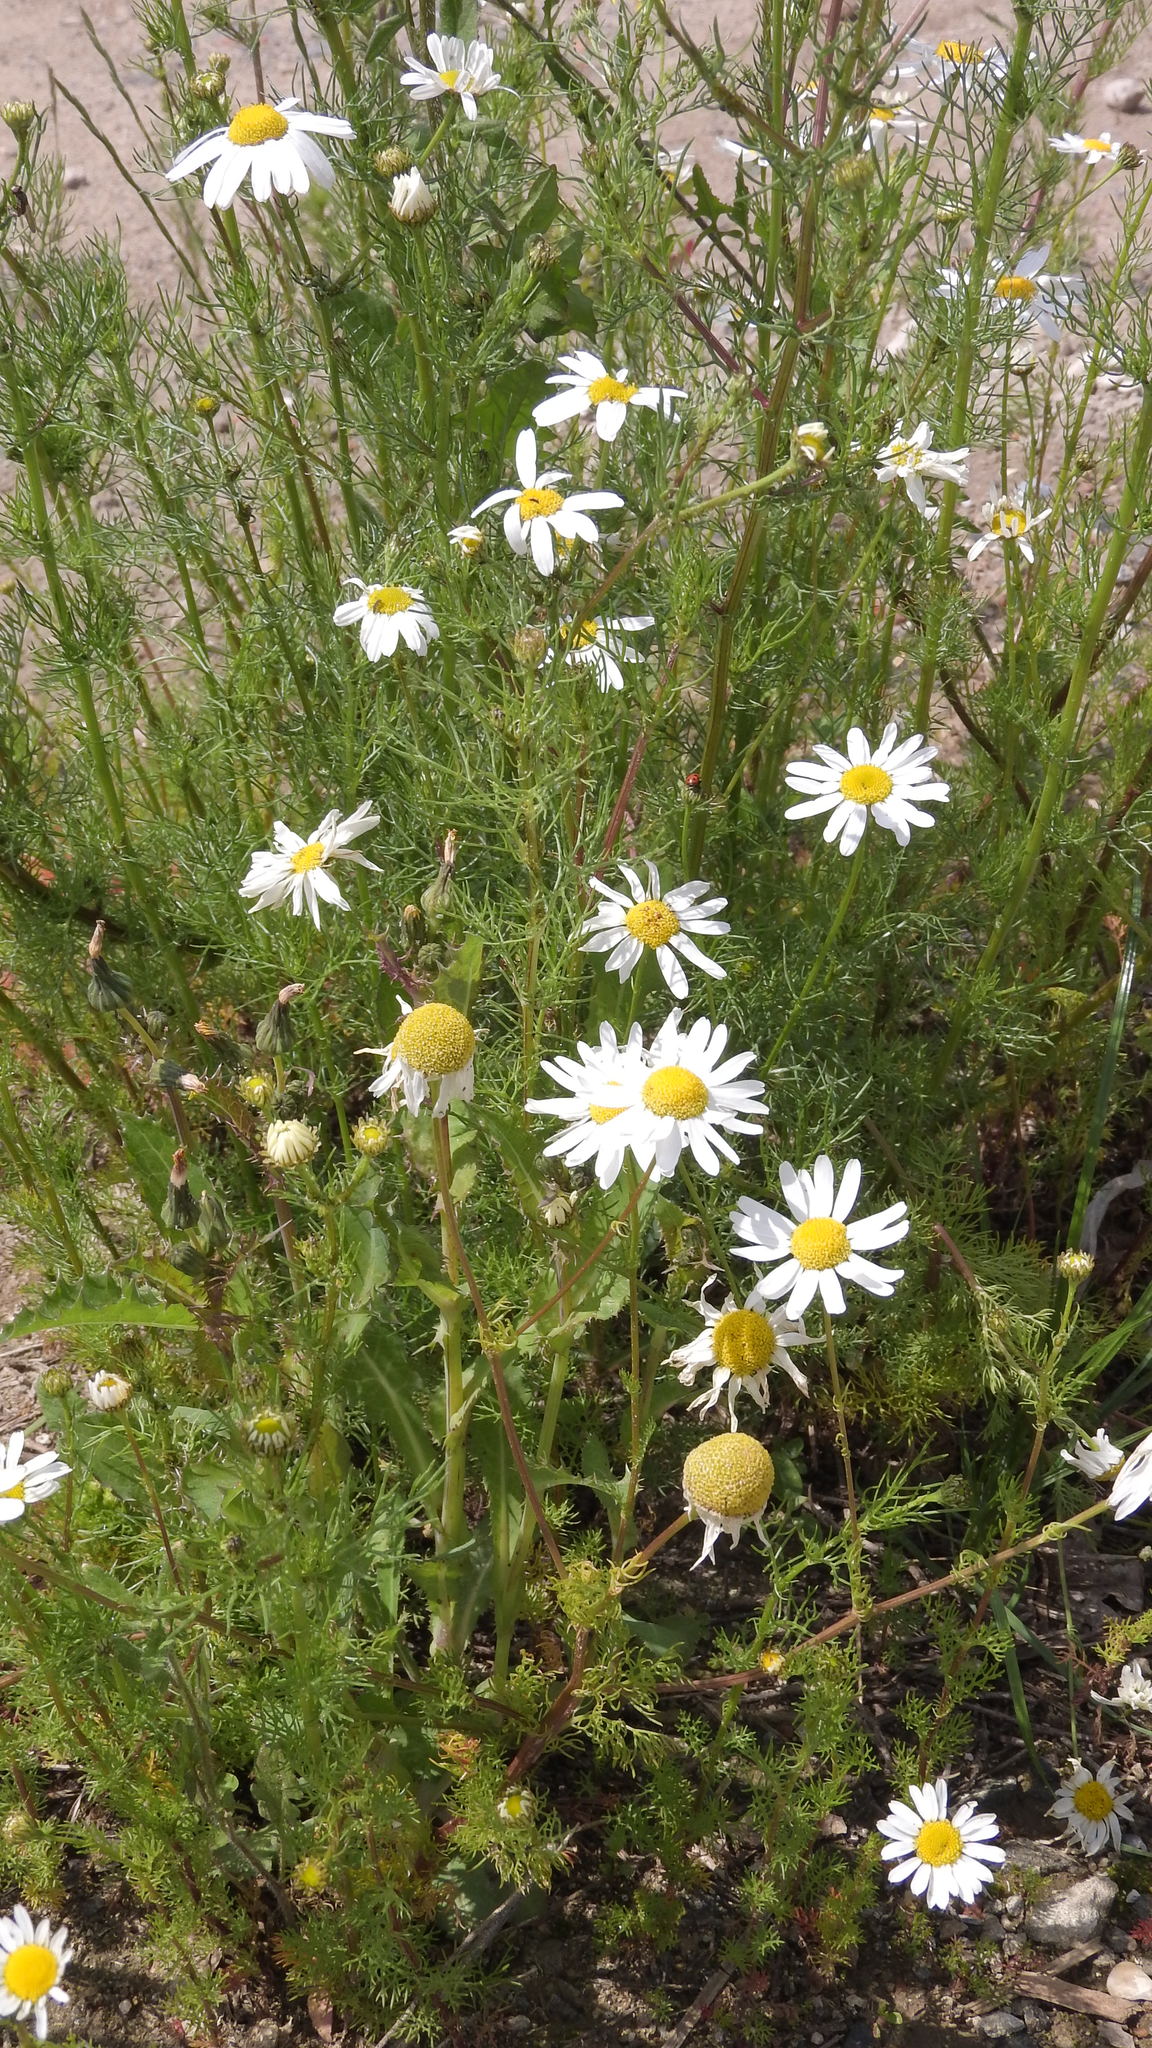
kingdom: Plantae
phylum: Tracheophyta
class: Magnoliopsida
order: Asterales
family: Asteraceae
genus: Tripleurospermum
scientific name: Tripleurospermum inodorum
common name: Scentless mayweed
